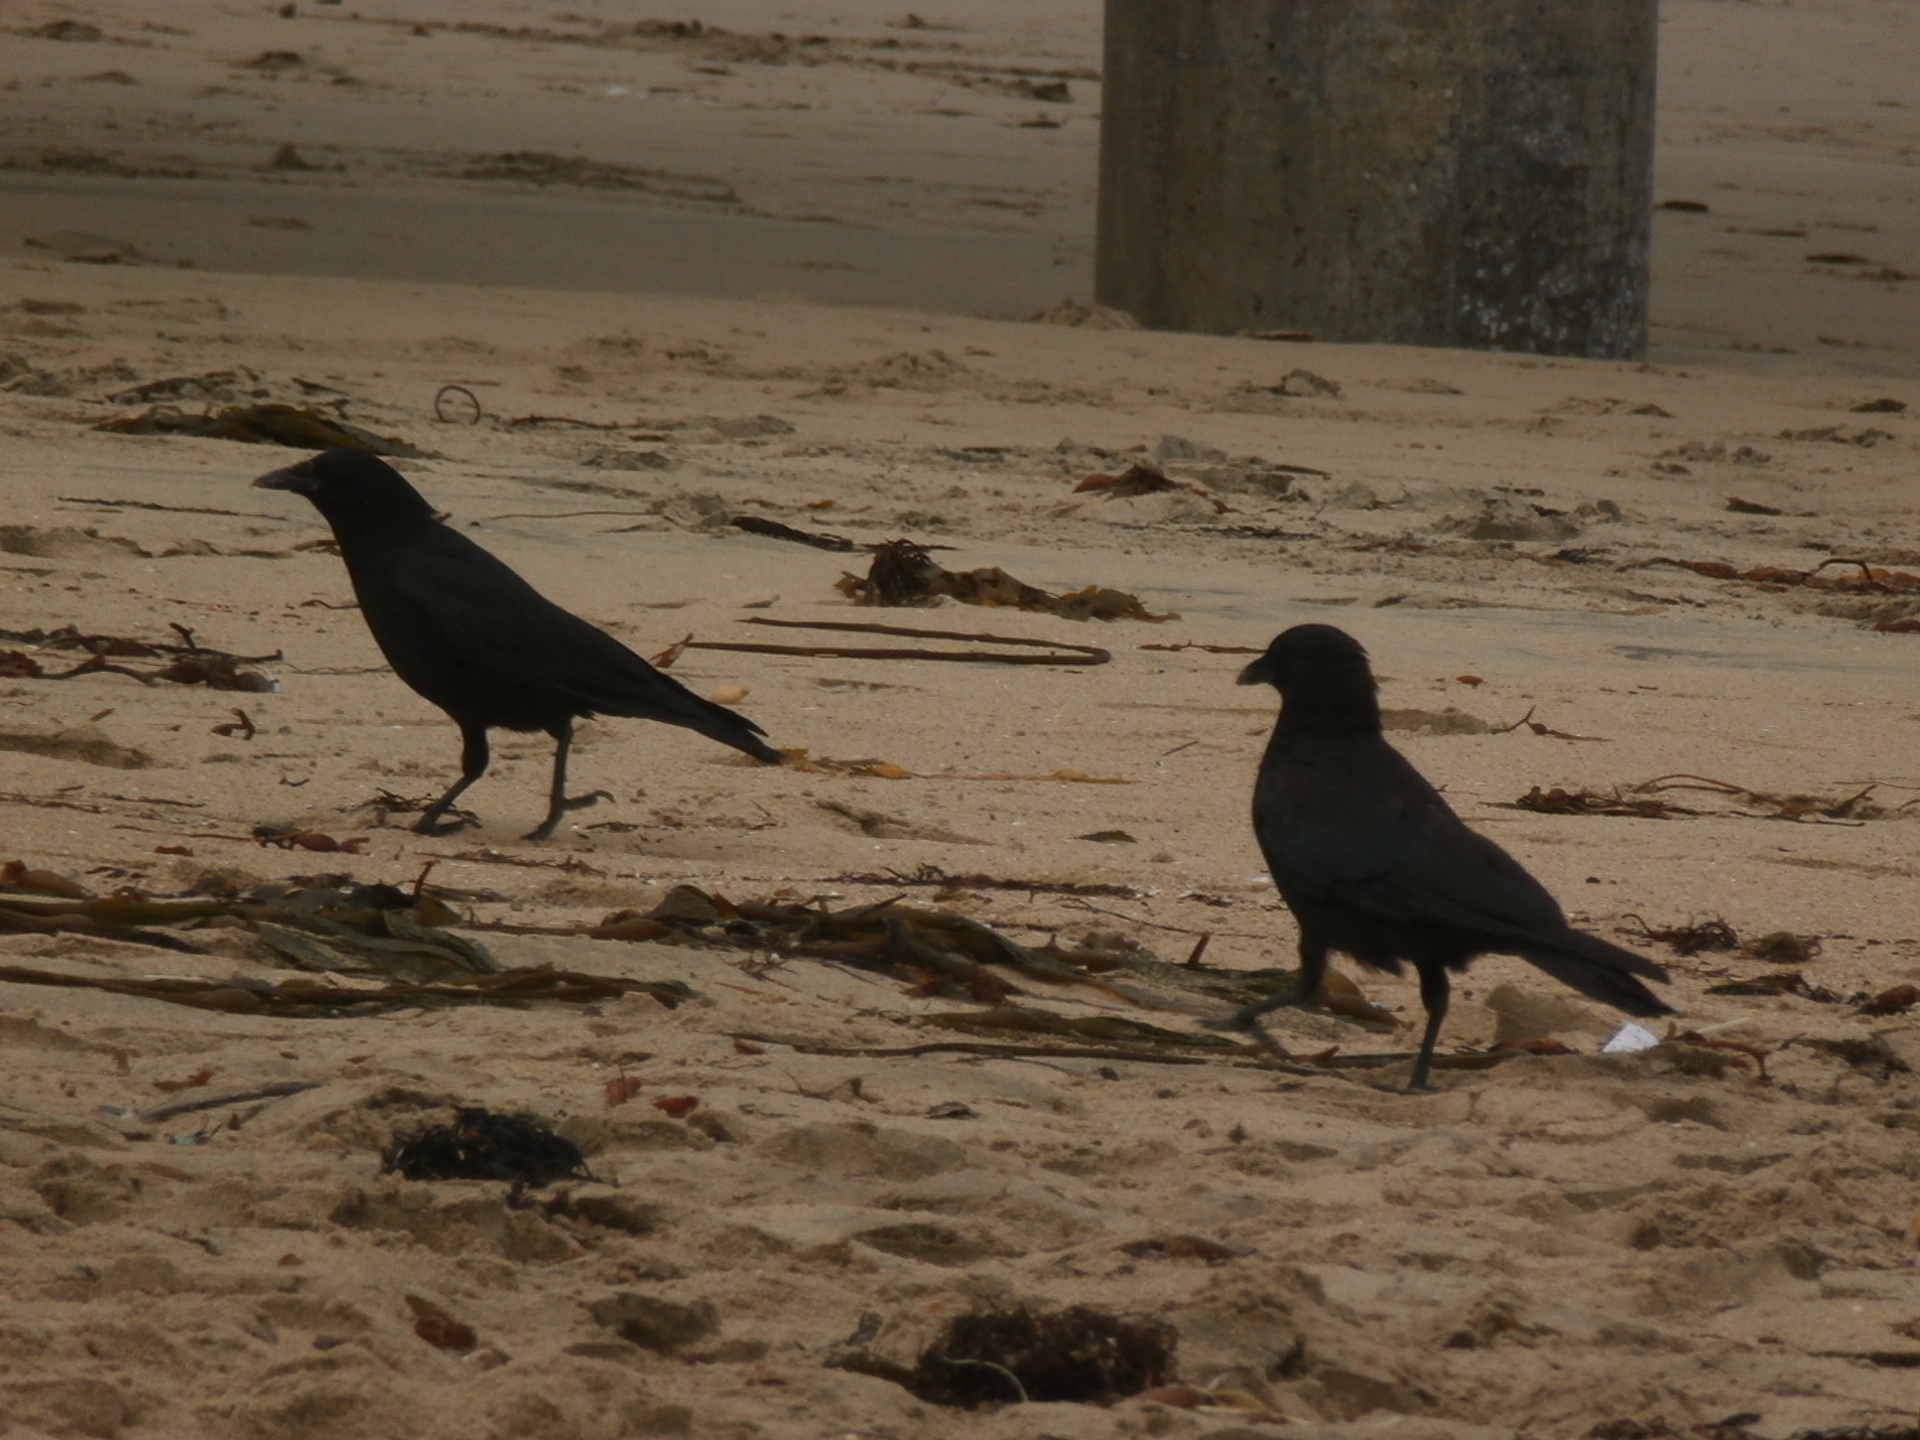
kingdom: Animalia
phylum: Chordata
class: Aves
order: Passeriformes
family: Corvidae
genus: Corvus
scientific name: Corvus brachyrhynchos
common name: American crow
